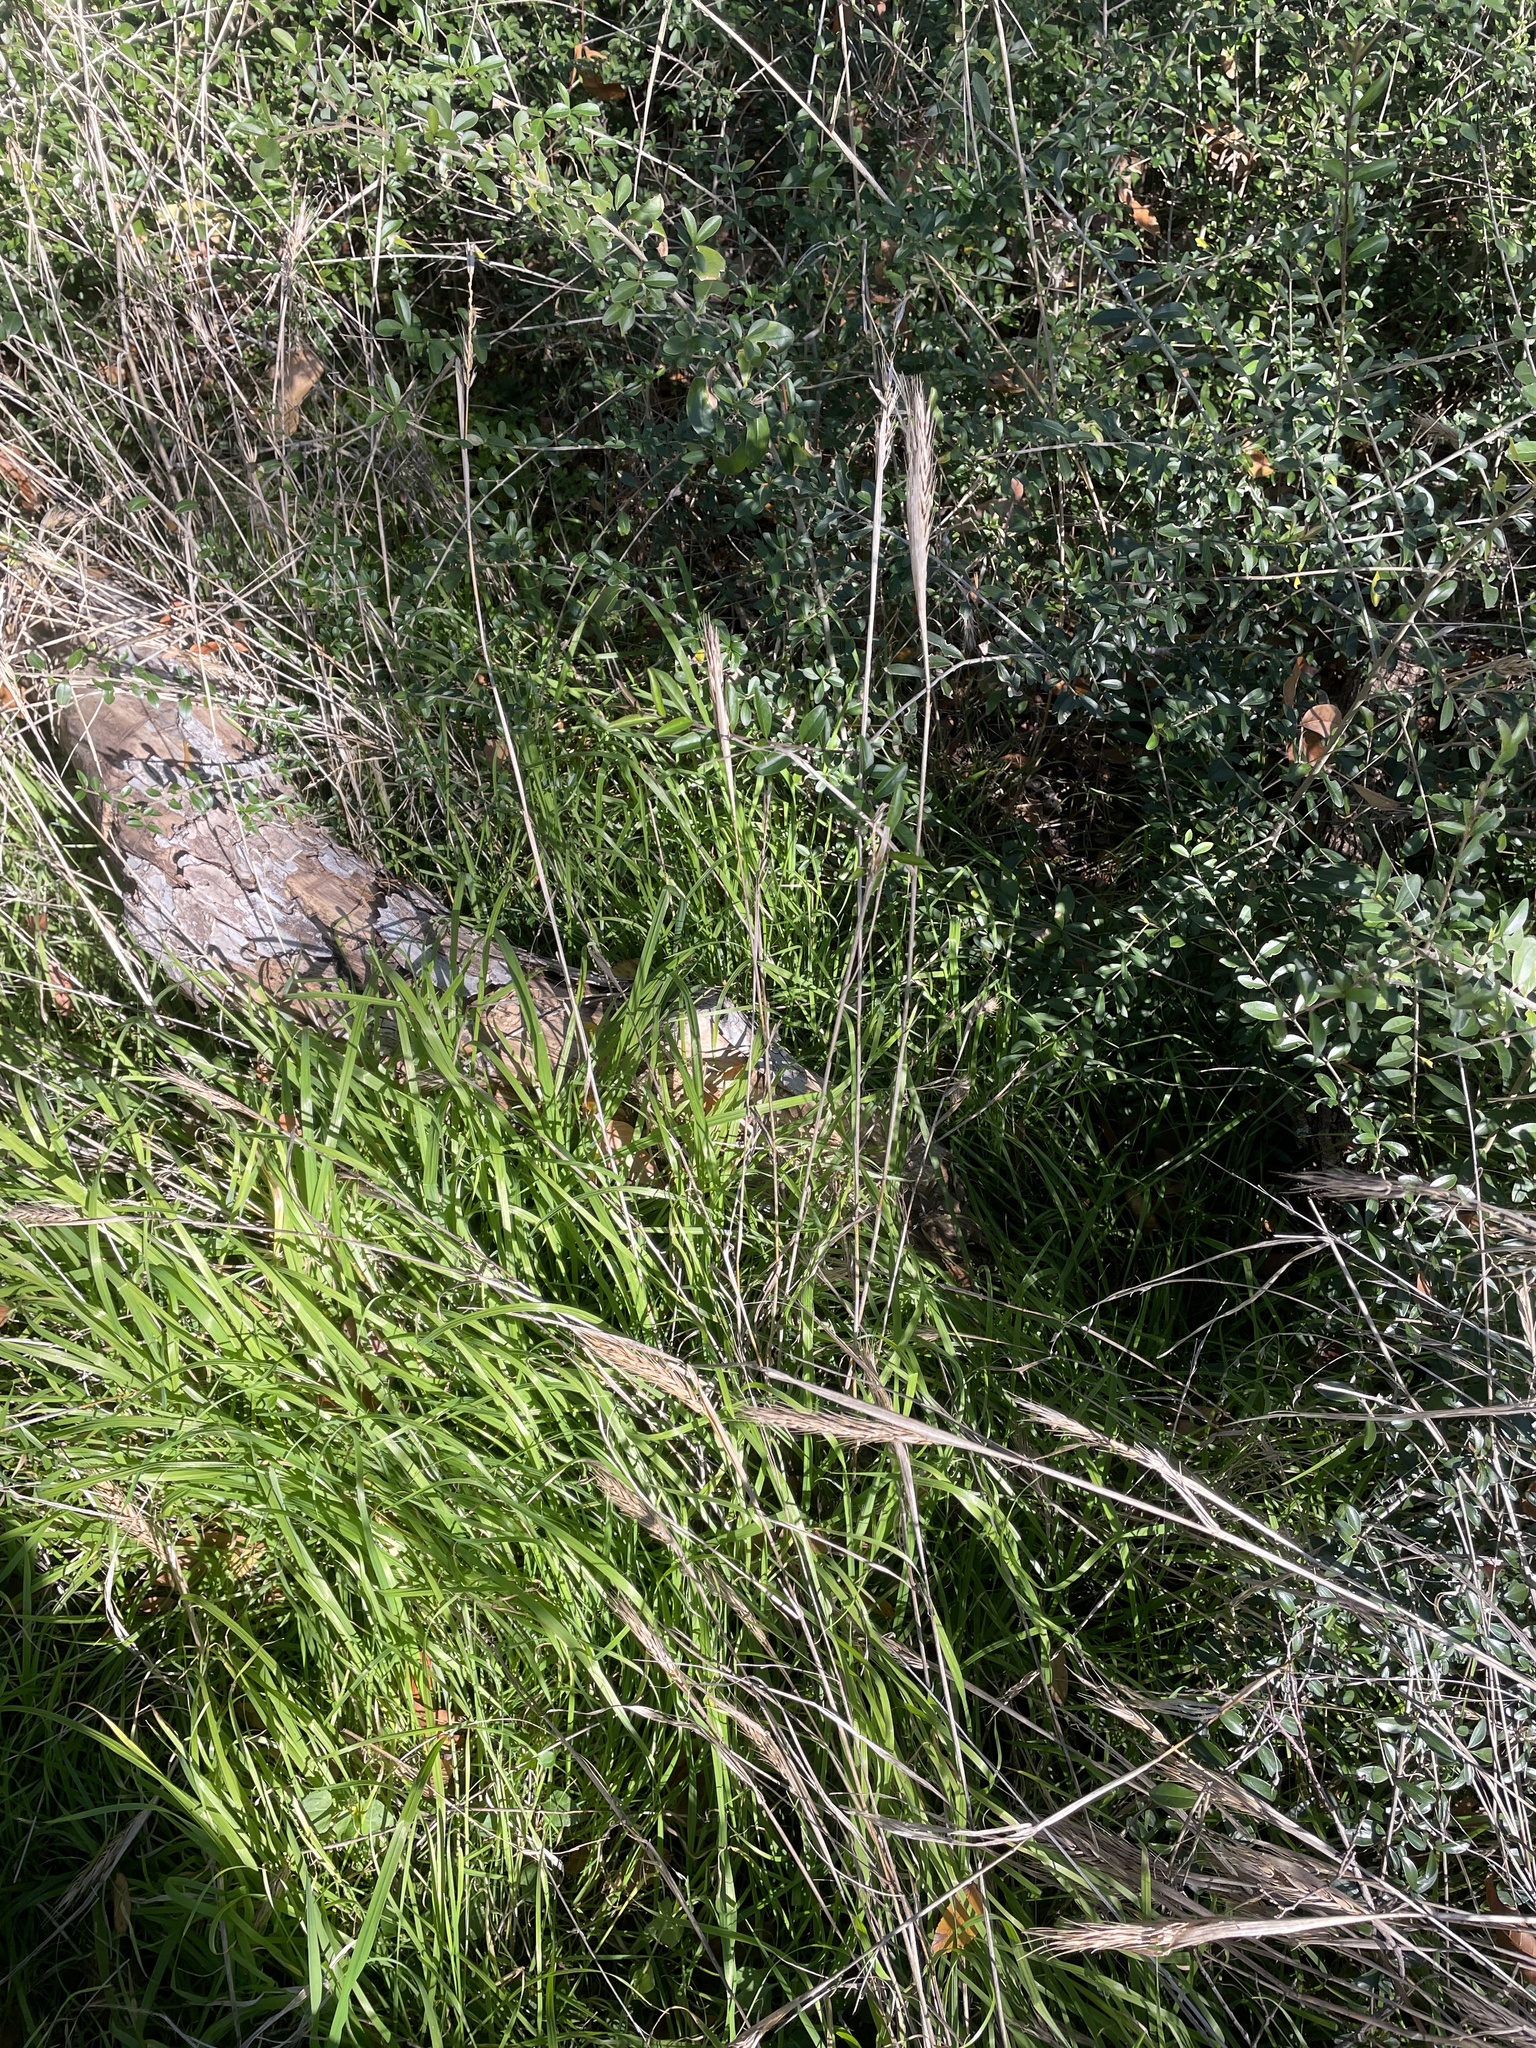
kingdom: Plantae
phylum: Tracheophyta
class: Liliopsida
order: Poales
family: Poaceae
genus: Elymus
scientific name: Elymus virginicus
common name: Common eastern wildrye
